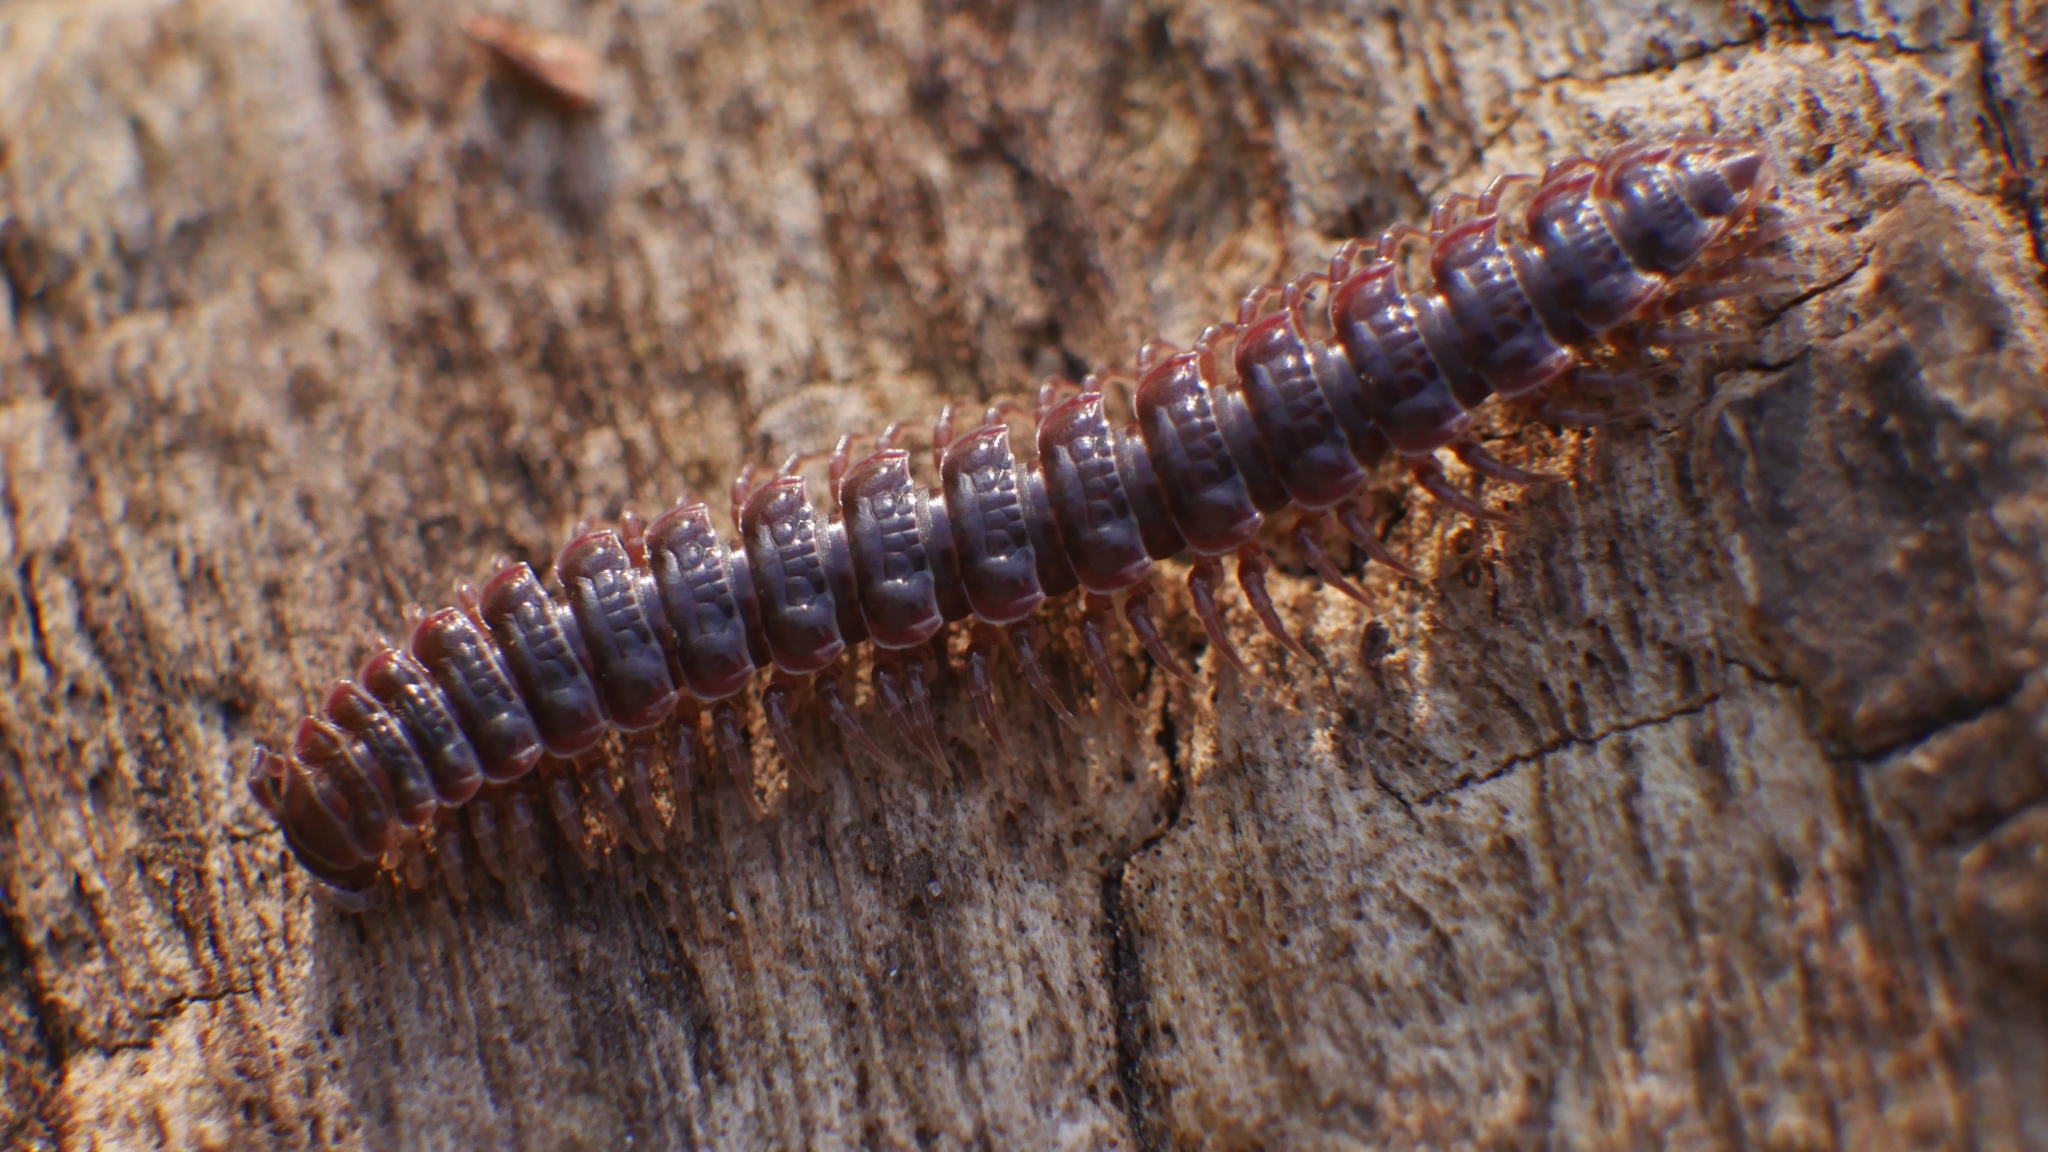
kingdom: Animalia
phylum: Arthropoda
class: Diplopoda
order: Polydesmida
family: Polydesmidae
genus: Pseudopolydesmus
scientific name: Pseudopolydesmus serratus
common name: Common pink flat-back millipede
